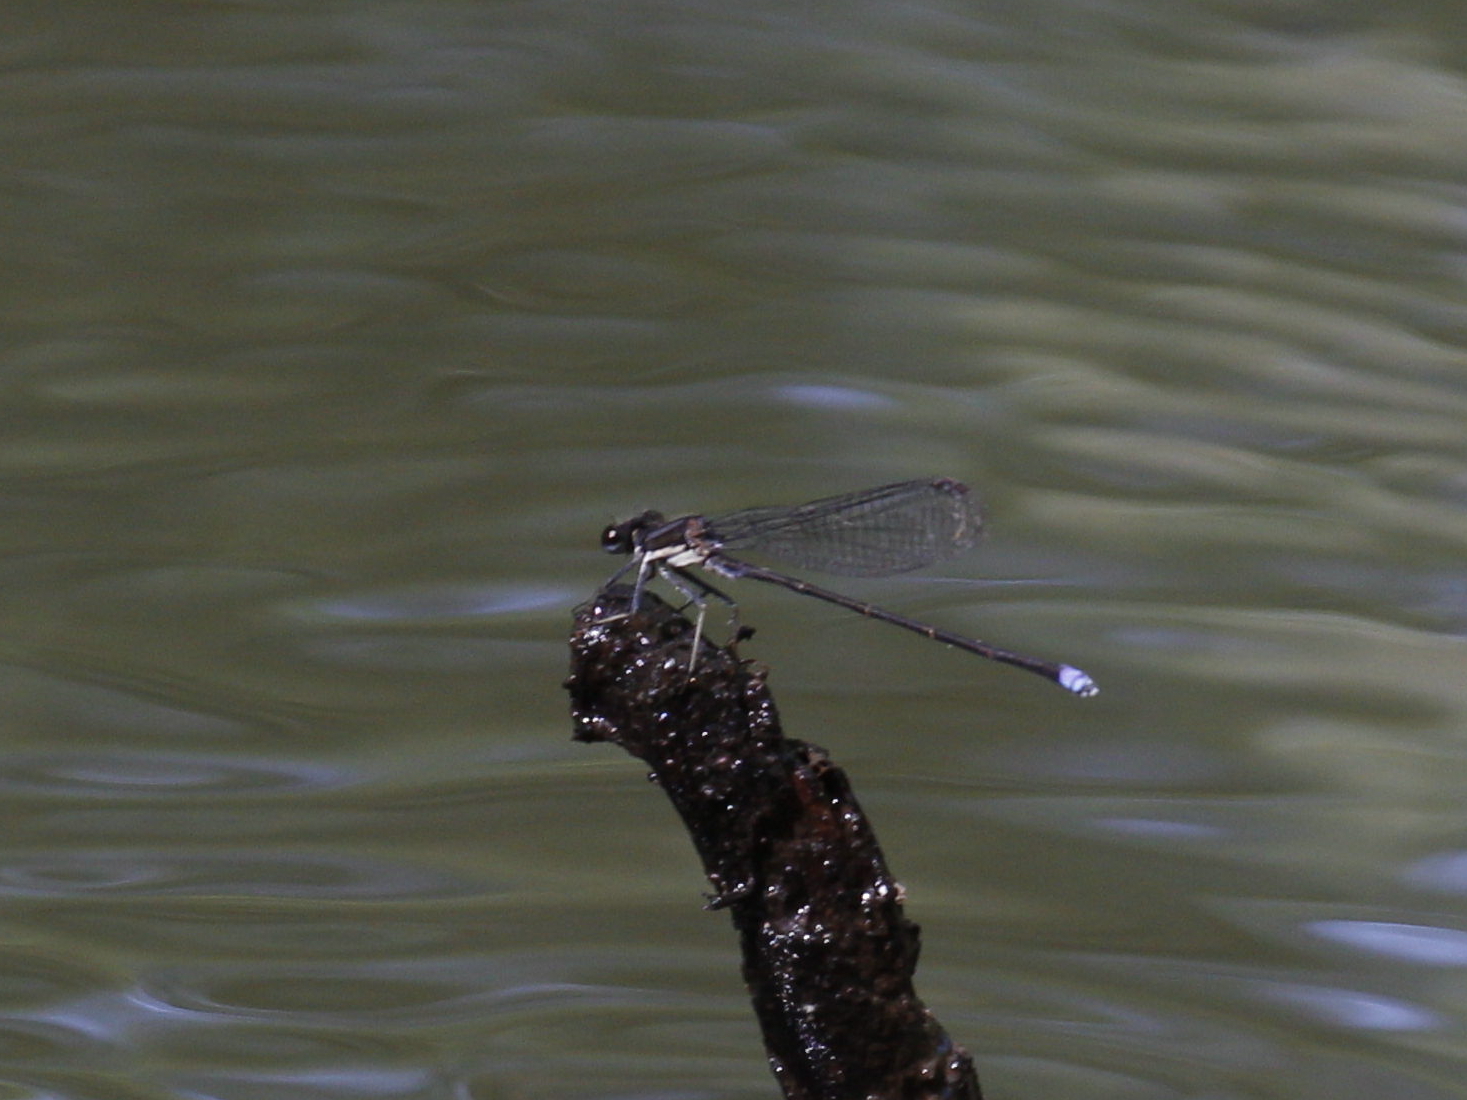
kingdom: Animalia
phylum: Arthropoda
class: Insecta
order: Odonata
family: Coenagrionidae
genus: Argia
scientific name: Argia tibialis
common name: Blue-tipped dancer
